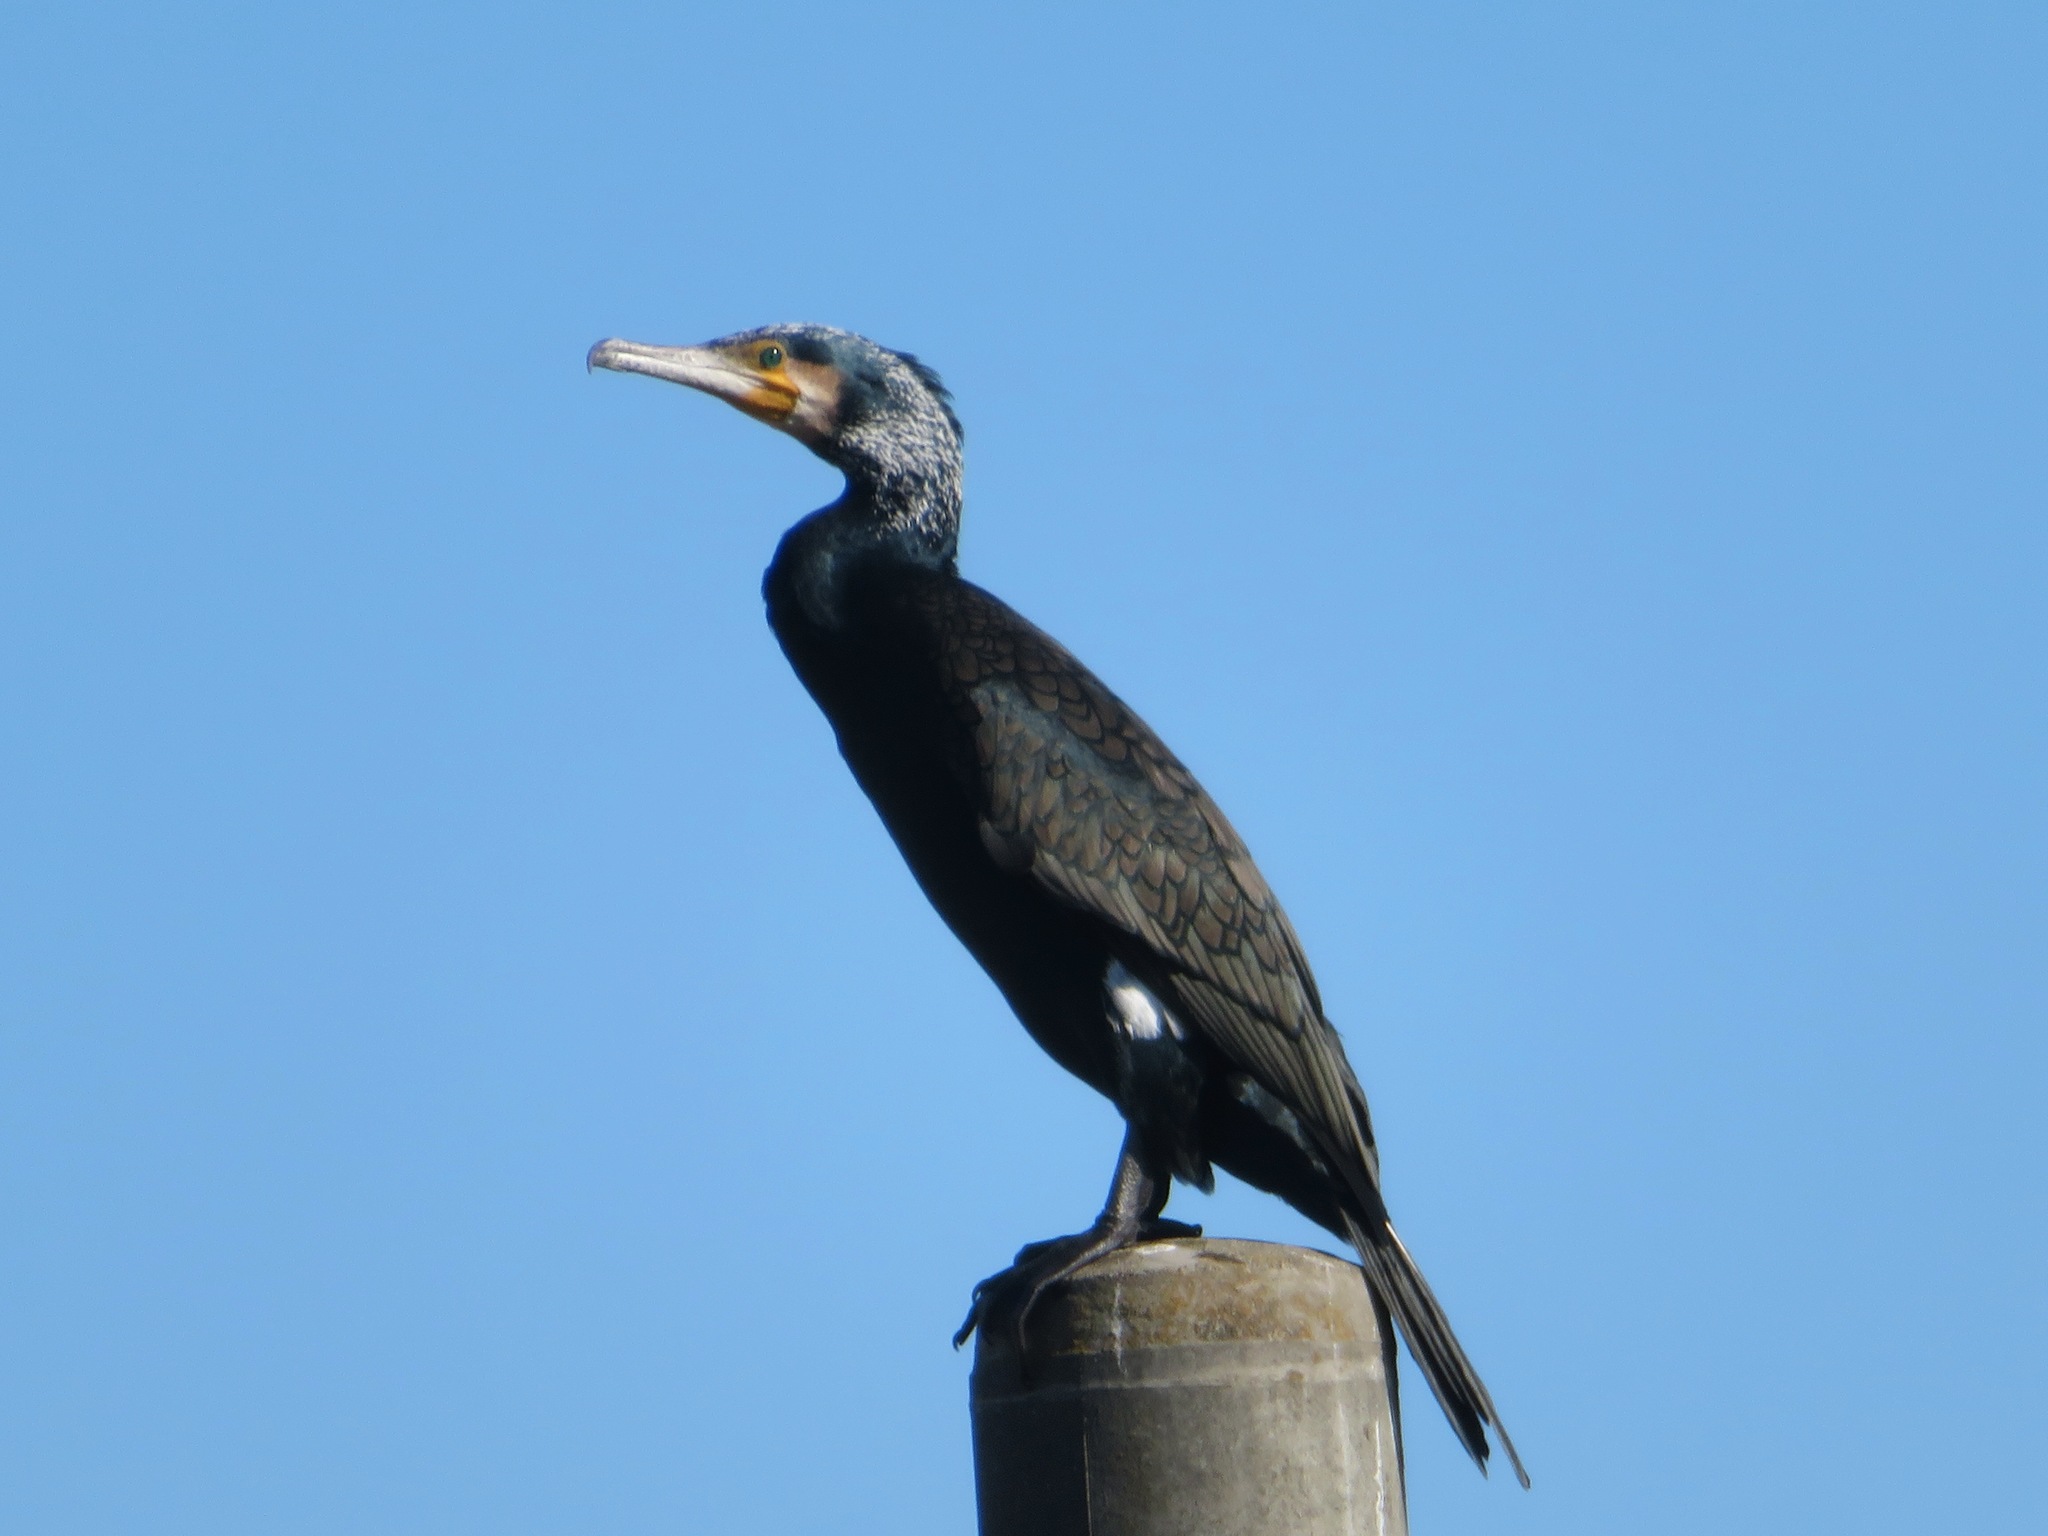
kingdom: Animalia
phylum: Chordata
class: Aves
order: Suliformes
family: Phalacrocoracidae
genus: Phalacrocorax
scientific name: Phalacrocorax carbo
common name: Great cormorant
